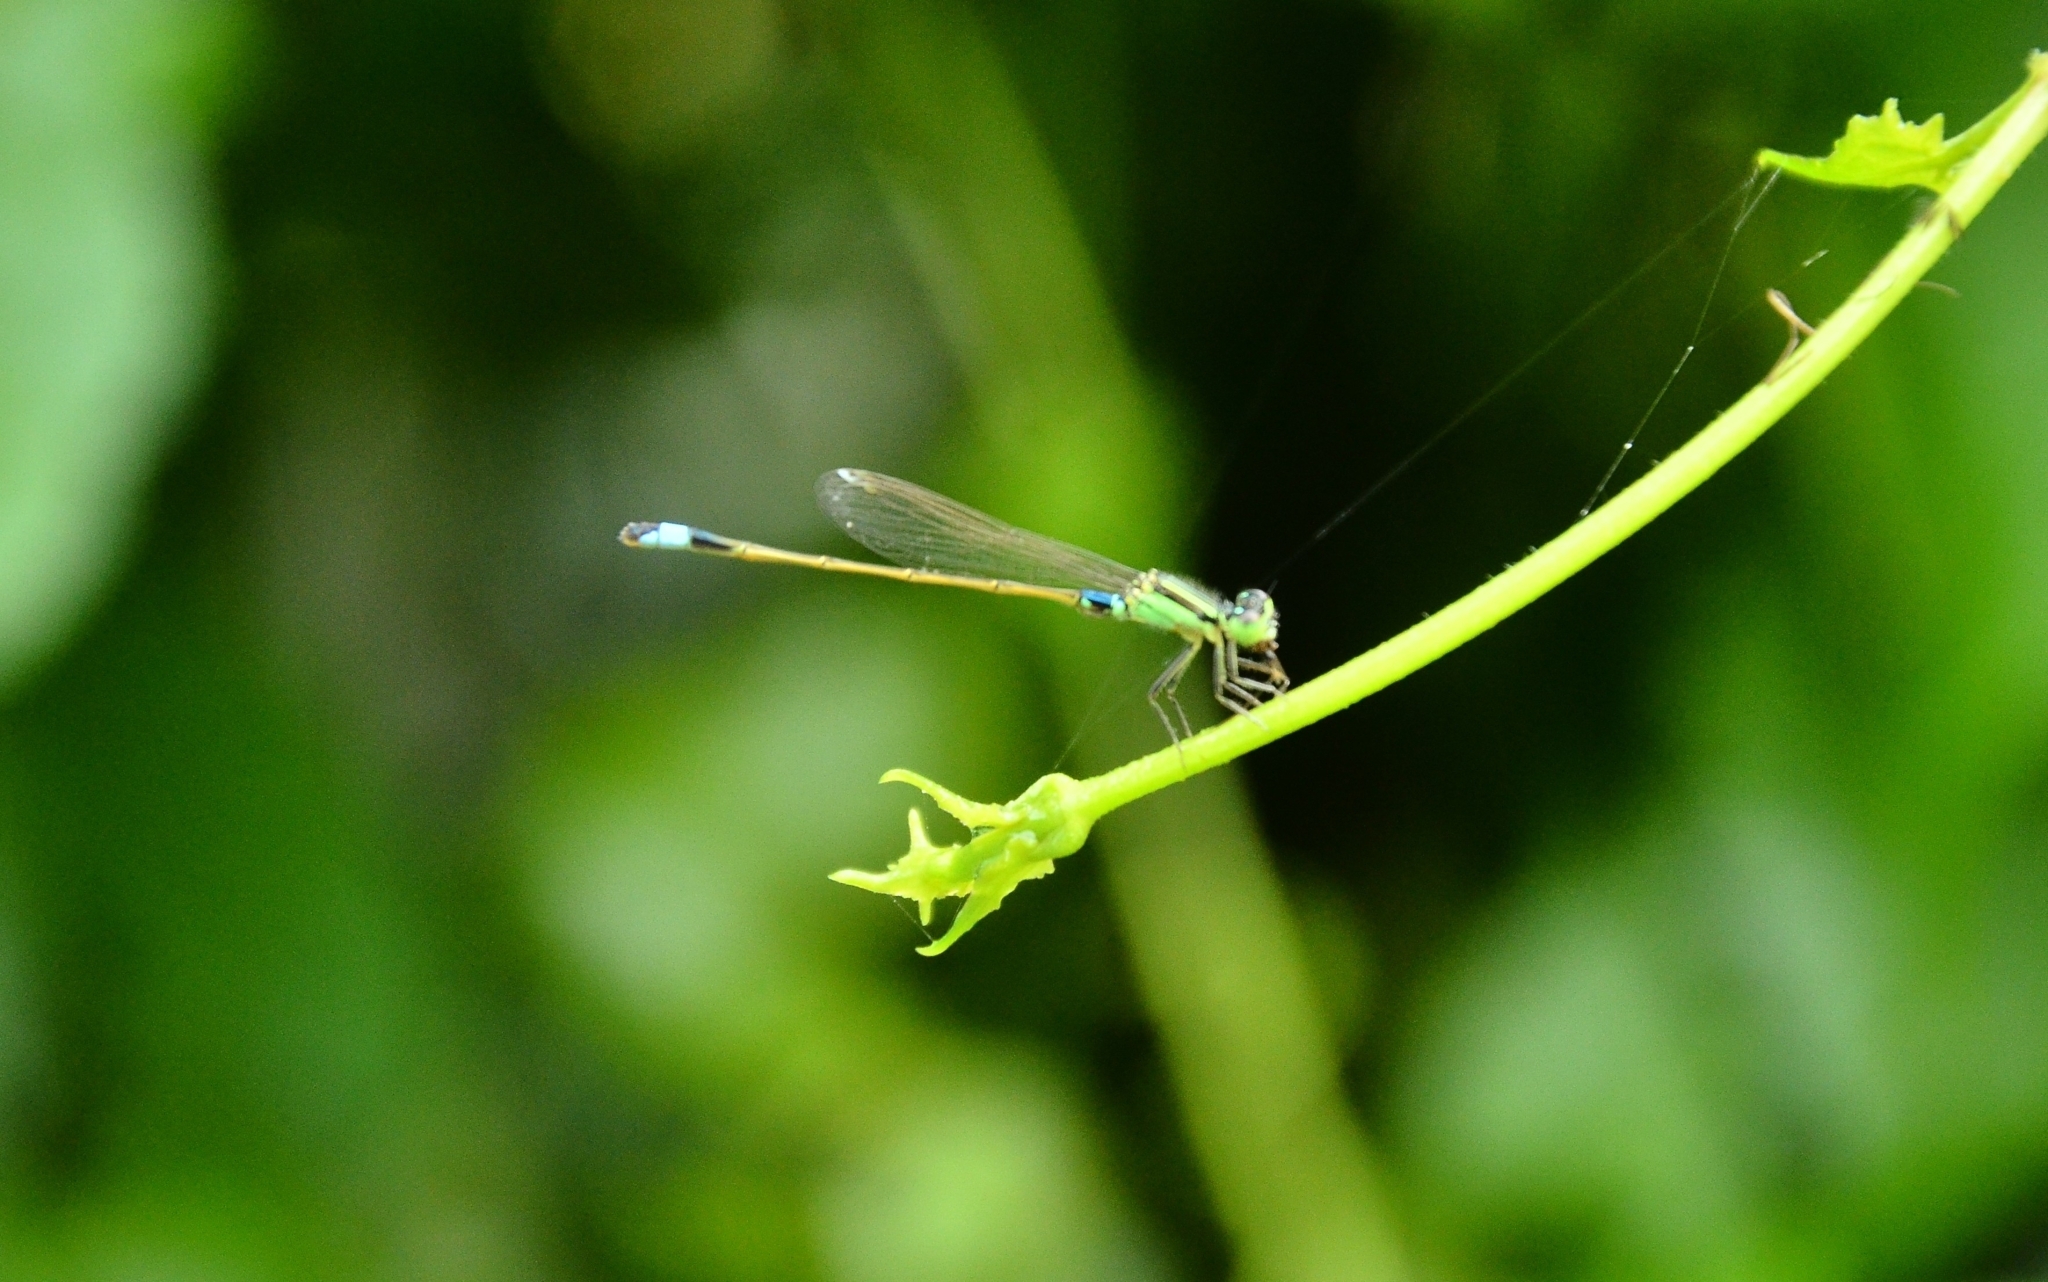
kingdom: Animalia
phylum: Arthropoda
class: Insecta
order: Odonata
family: Coenagrionidae
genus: Ischnura
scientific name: Ischnura senegalensis
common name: Tropical bluetail
